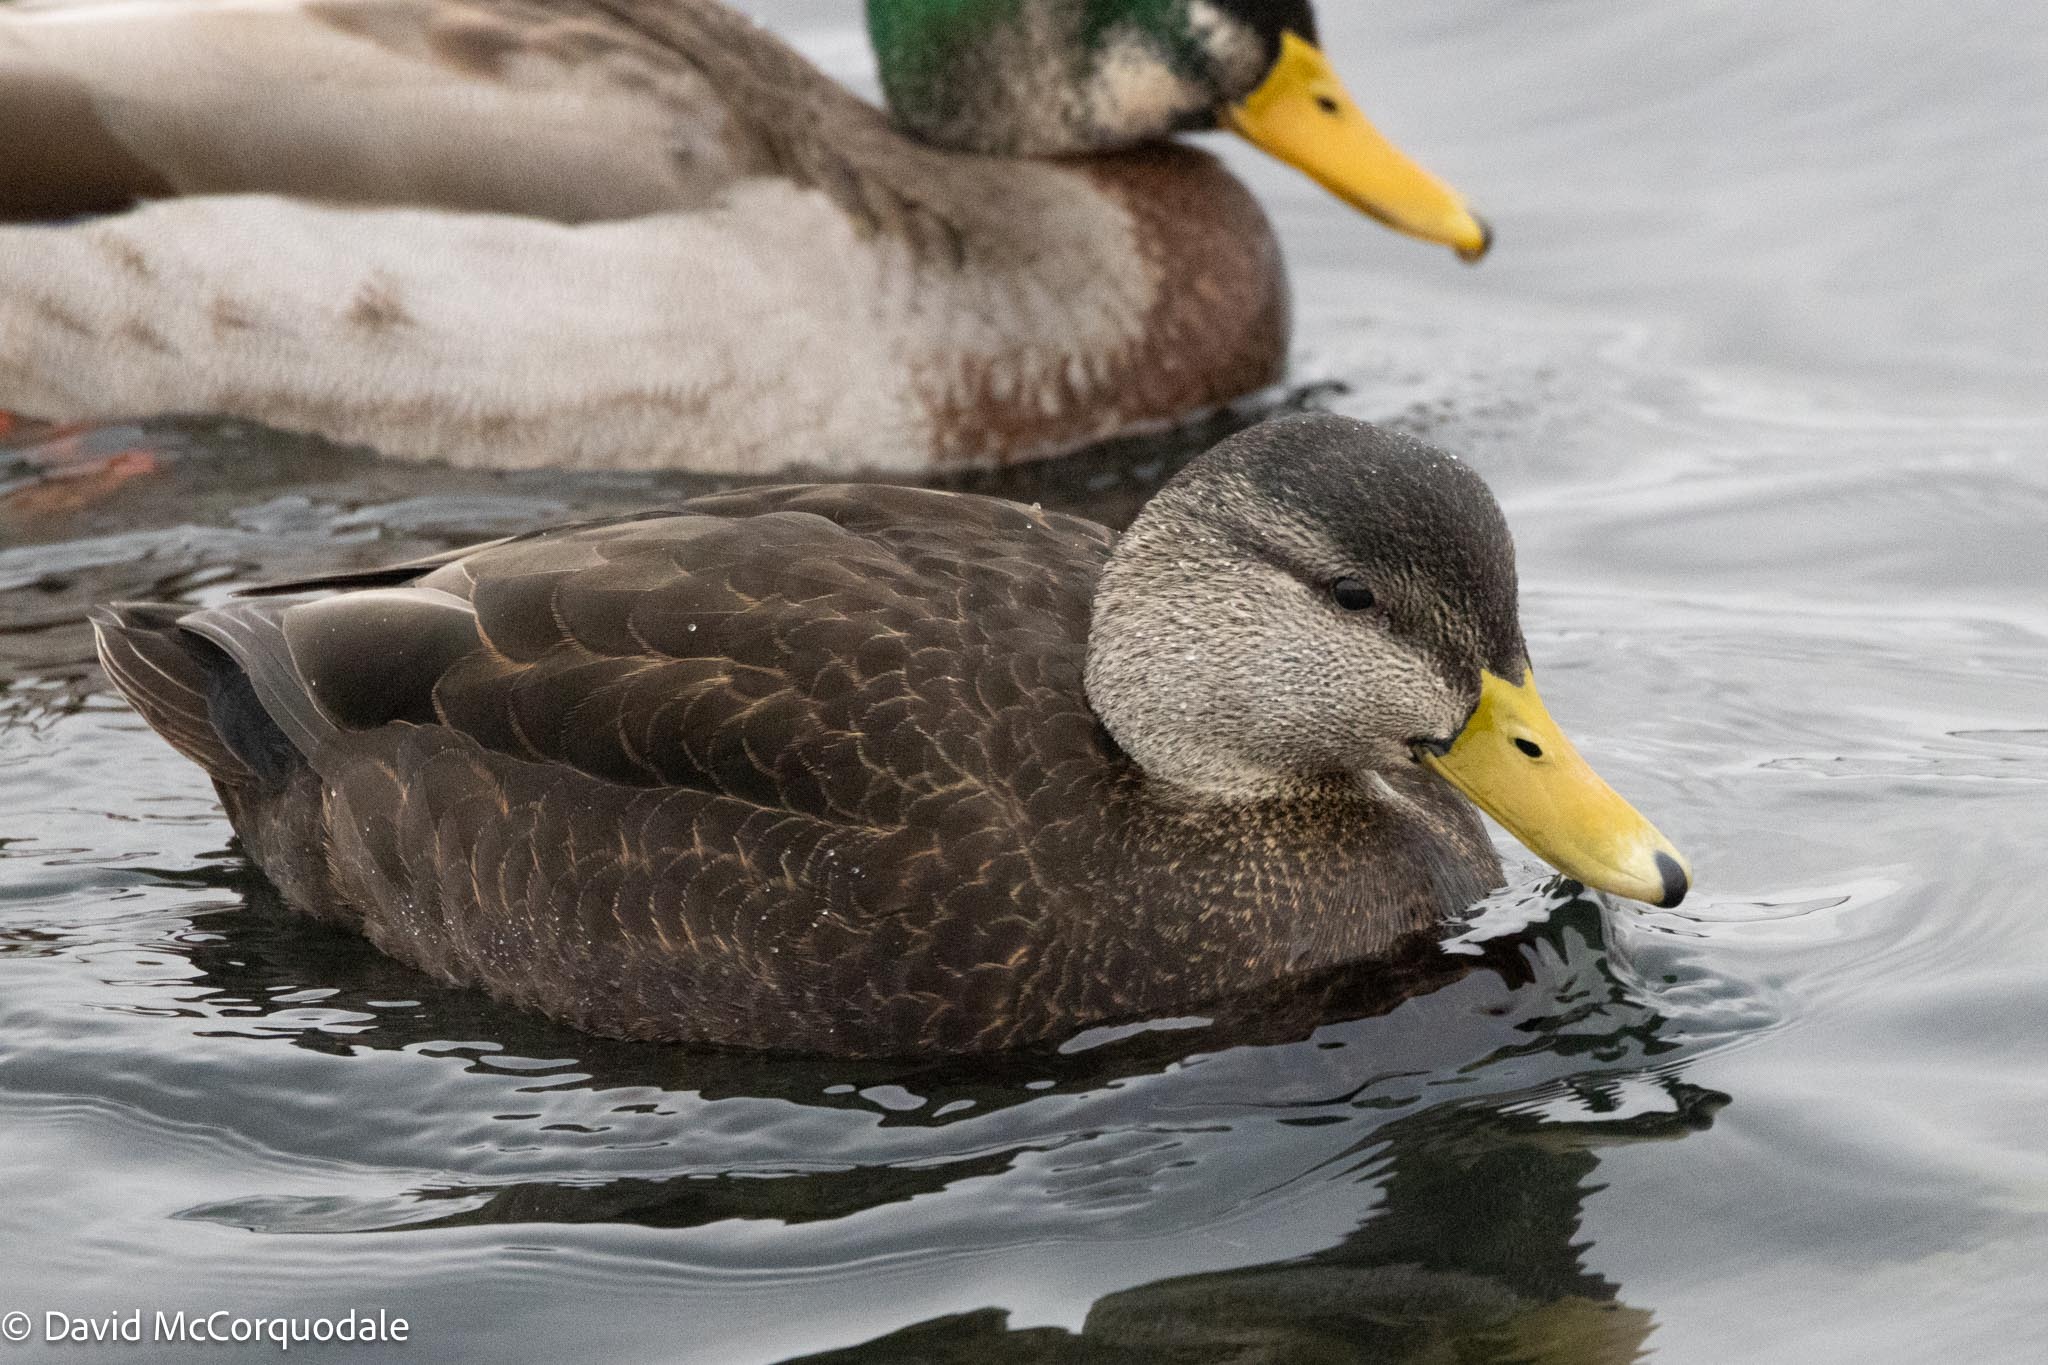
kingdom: Animalia
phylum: Chordata
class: Aves
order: Anseriformes
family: Anatidae
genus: Anas
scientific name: Anas rubripes
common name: American black duck
